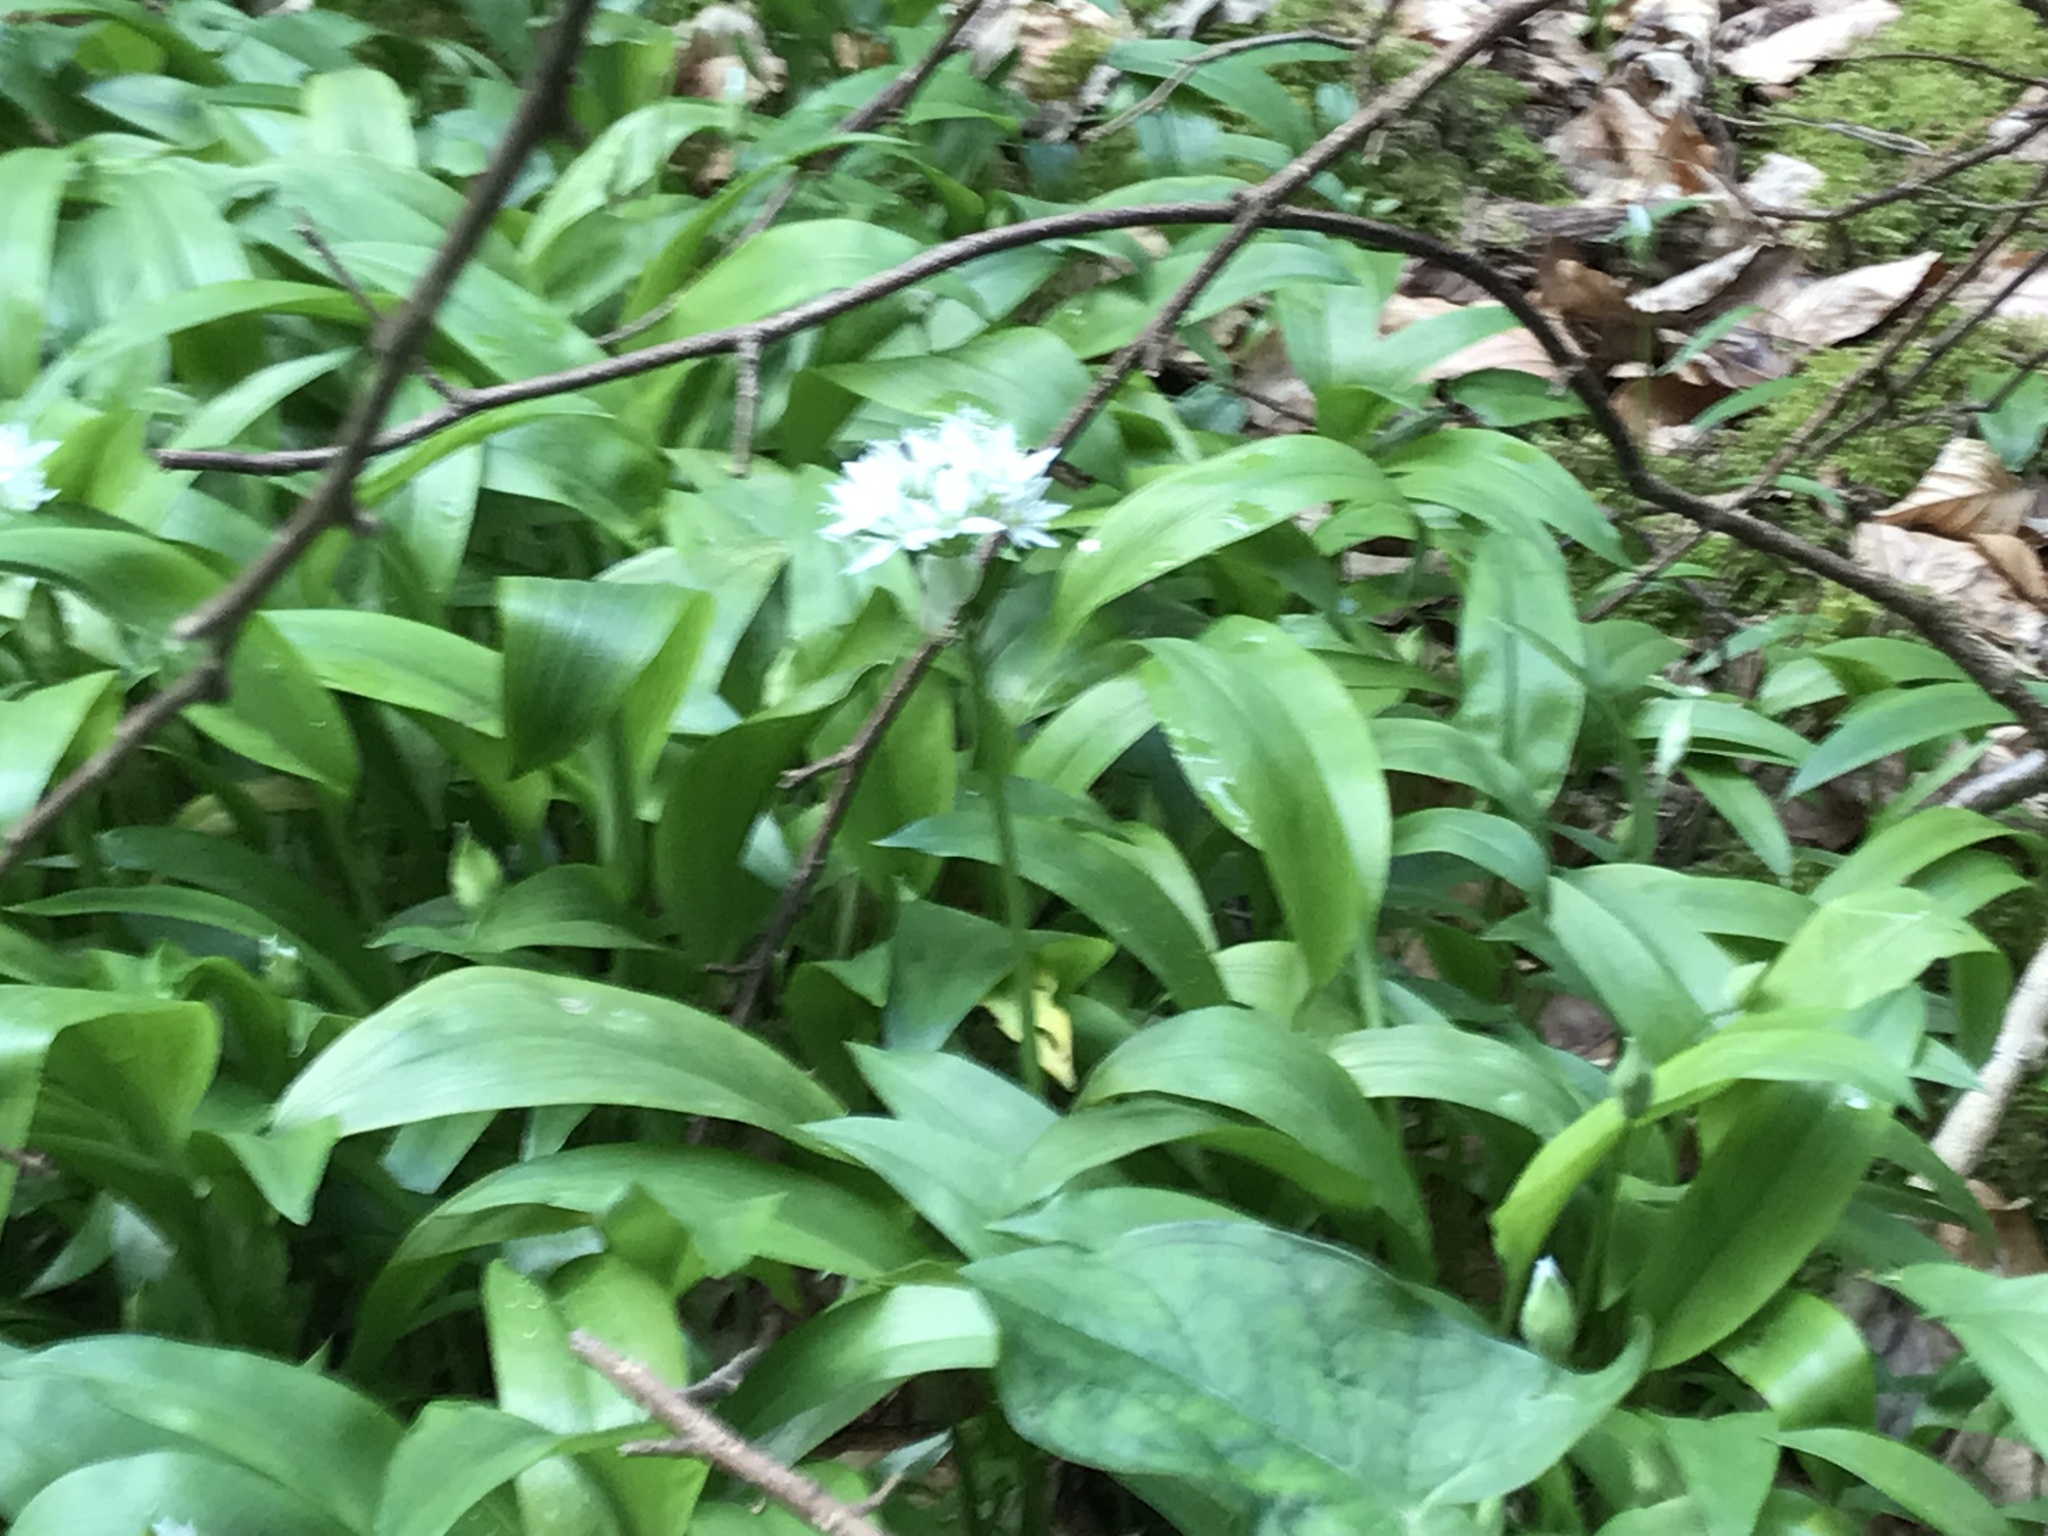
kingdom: Plantae
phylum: Tracheophyta
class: Liliopsida
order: Asparagales
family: Amaryllidaceae
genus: Allium
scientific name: Allium ursinum
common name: Ramsons
